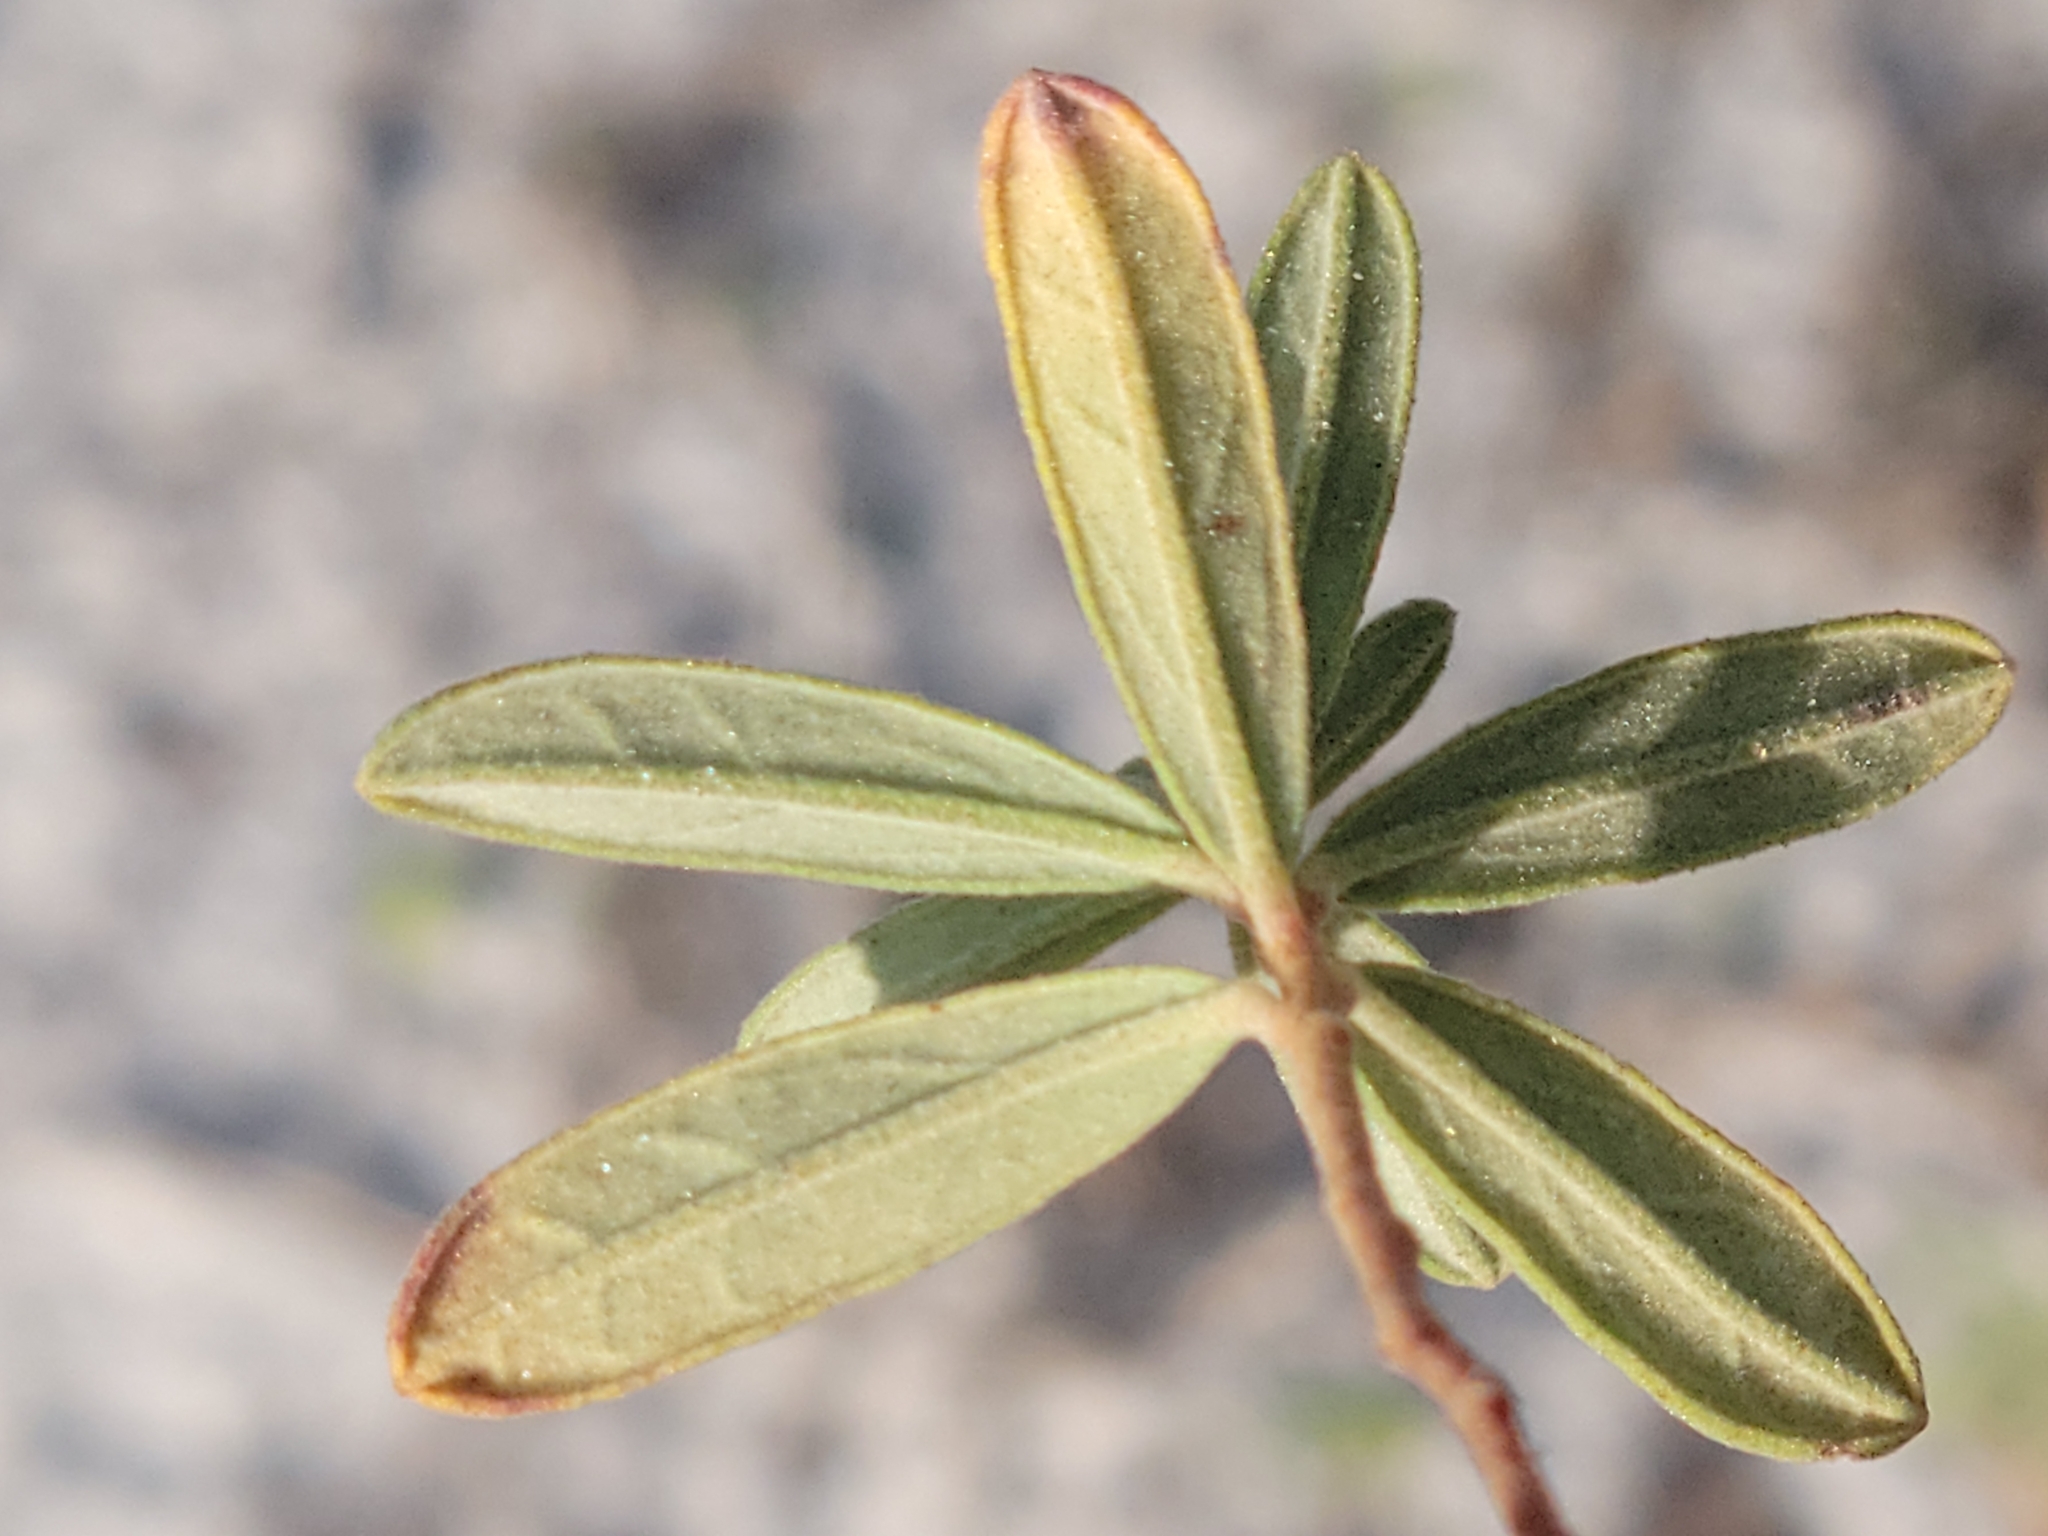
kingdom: Plantae
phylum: Tracheophyta
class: Magnoliopsida
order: Malvales
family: Cistaceae
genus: Crocanthemum
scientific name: Crocanthemum nashii
